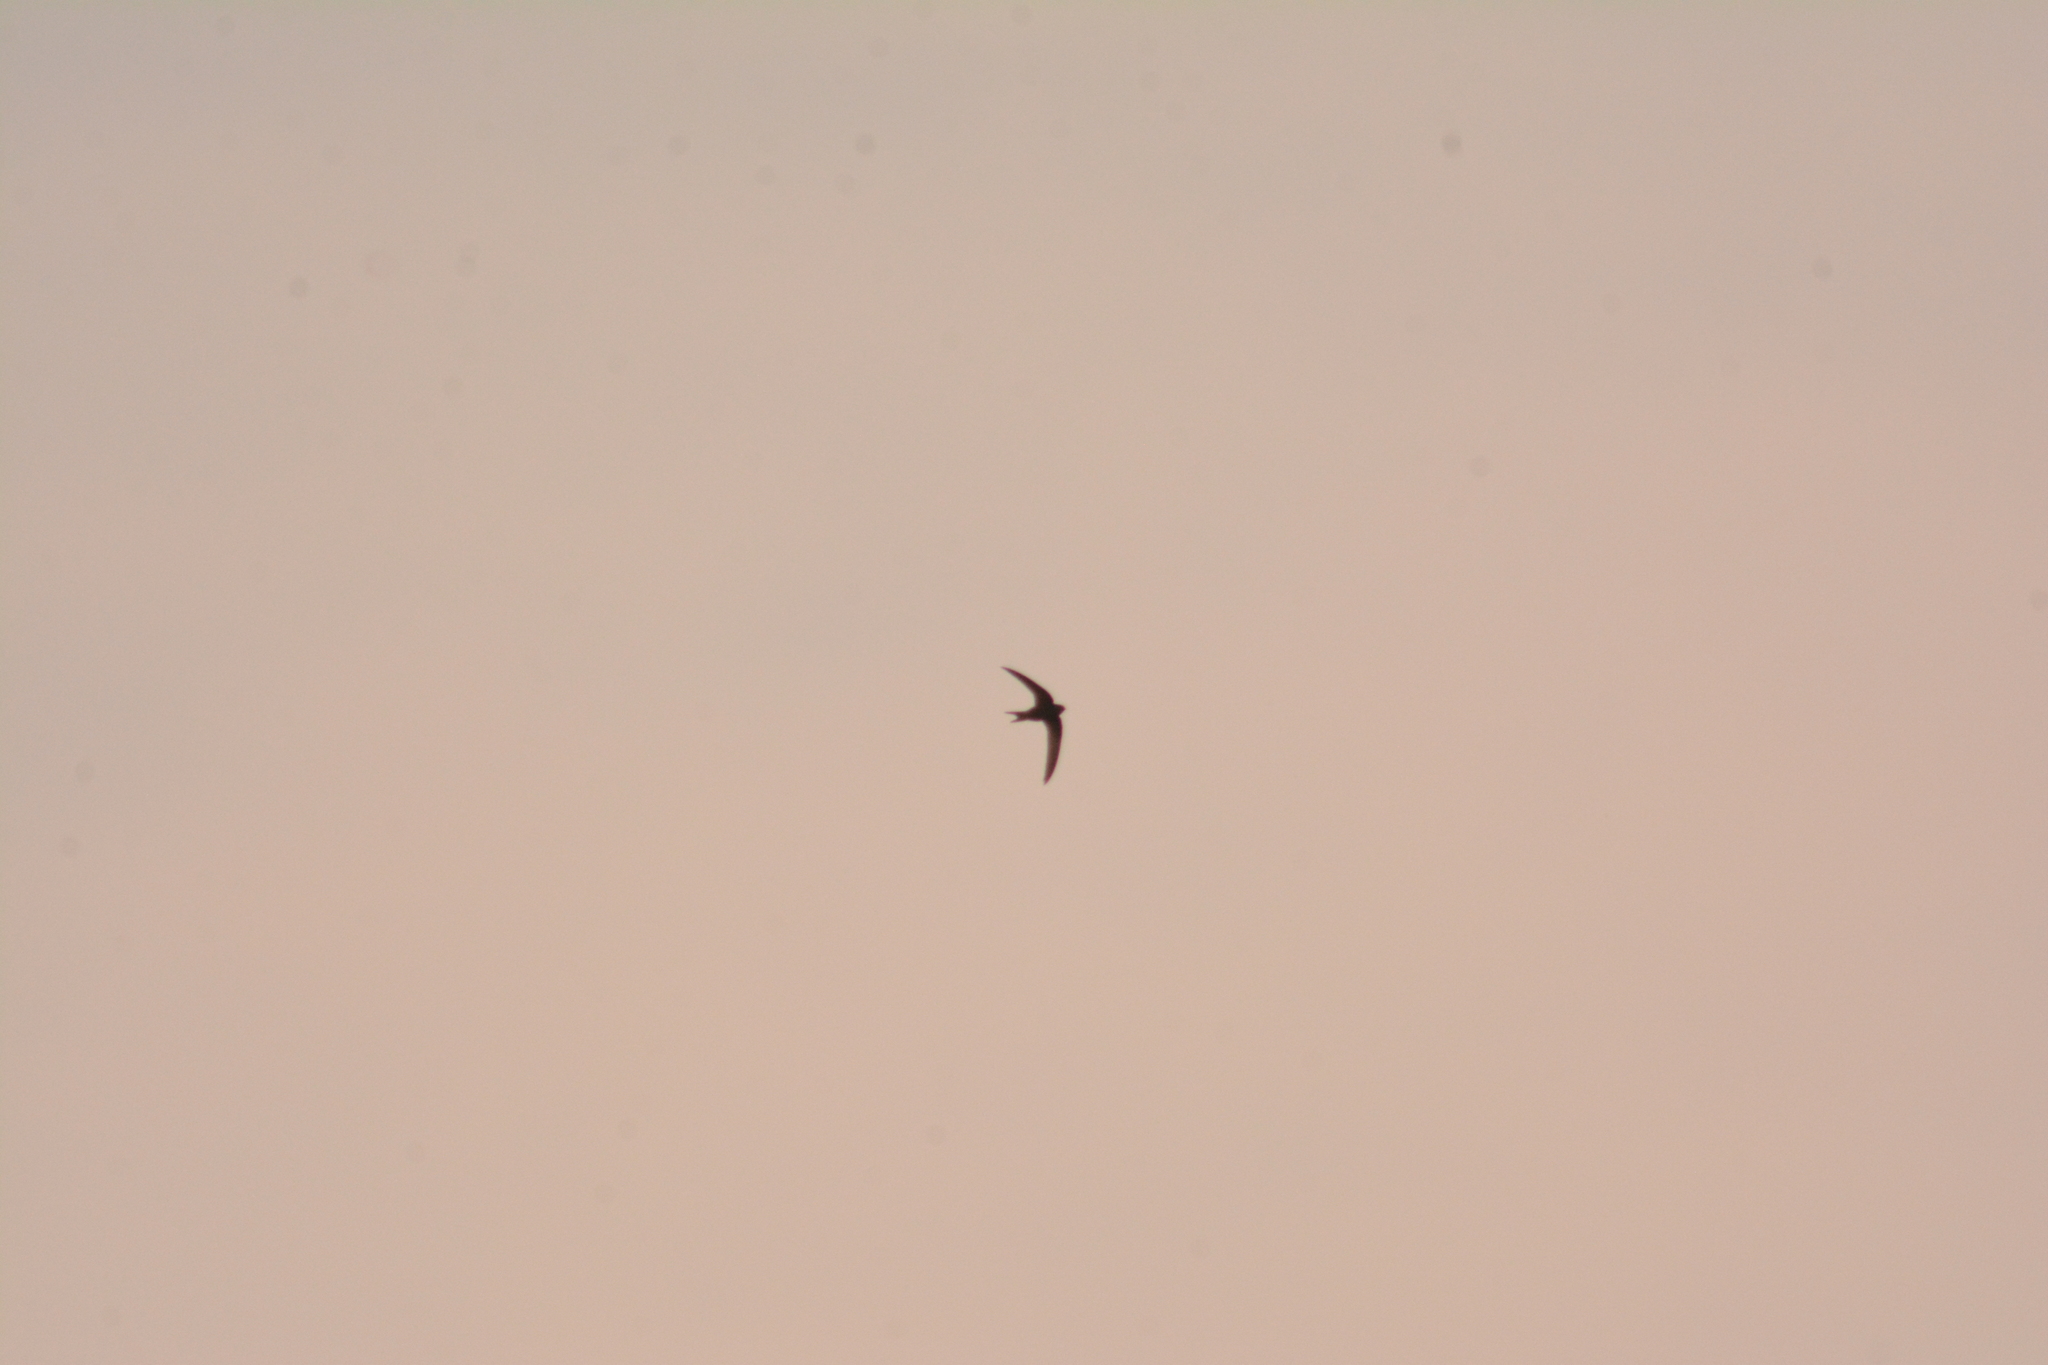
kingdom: Animalia
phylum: Chordata
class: Aves
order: Apodiformes
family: Apodidae
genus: Apus
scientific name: Apus apus
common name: Common swift
